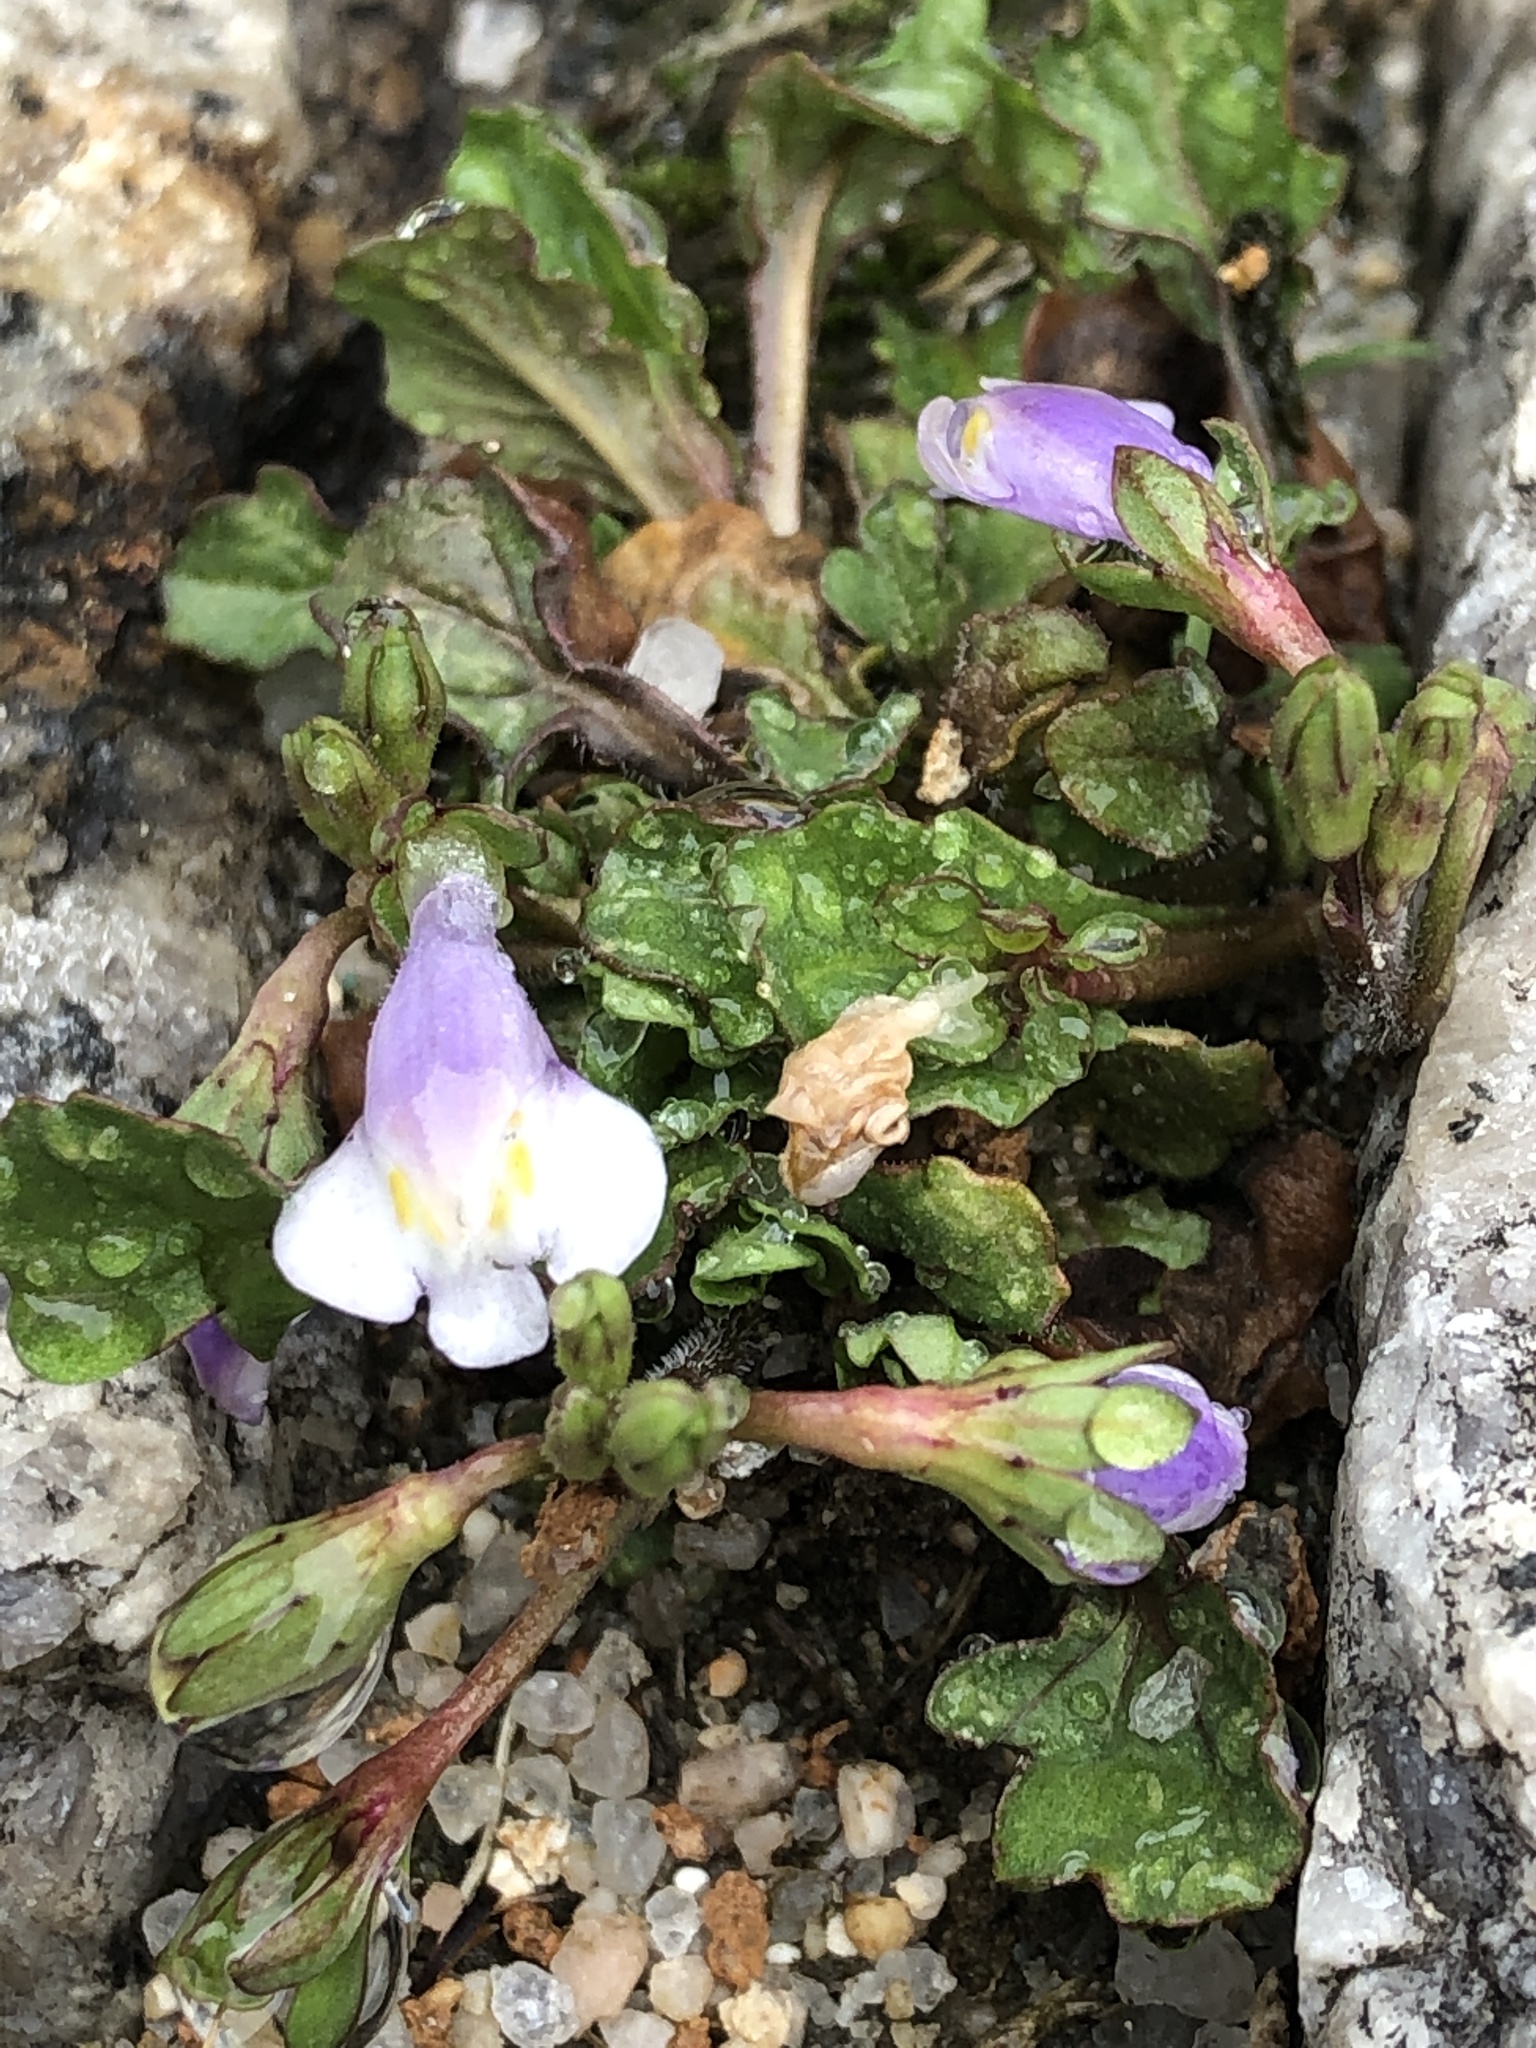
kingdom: Plantae
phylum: Tracheophyta
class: Magnoliopsida
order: Lamiales
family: Mazaceae
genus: Mazus
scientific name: Mazus pumilus
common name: Japanese mazus
